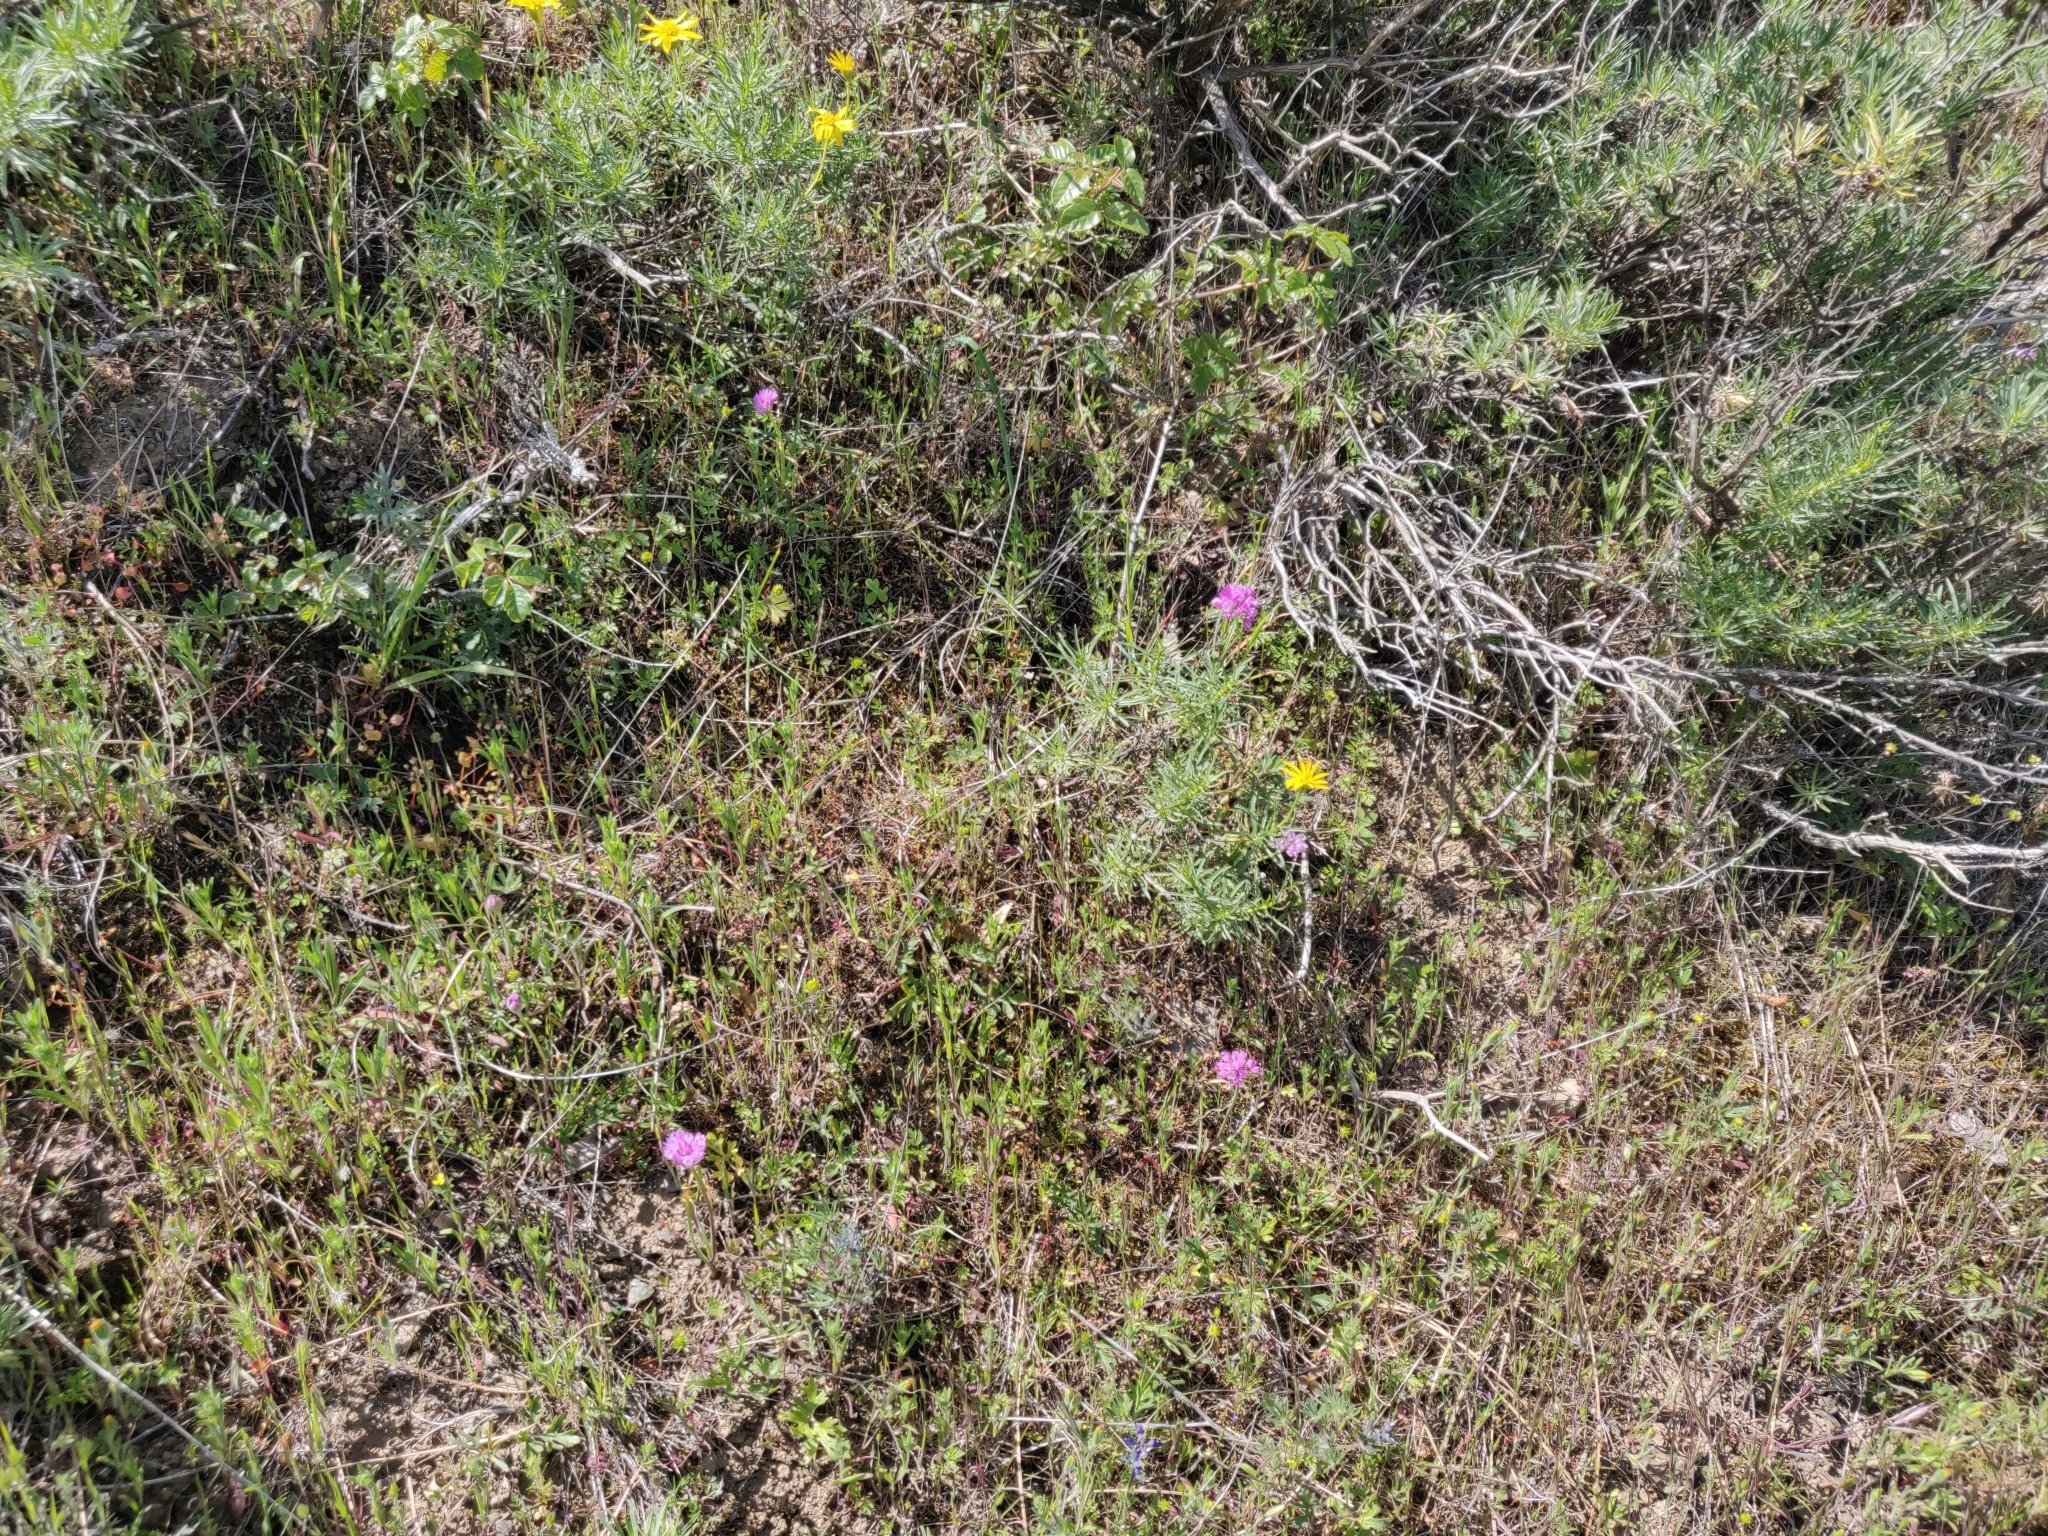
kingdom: Plantae
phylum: Tracheophyta
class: Liliopsida
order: Asparagales
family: Amaryllidaceae
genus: Allium
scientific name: Allium serra
